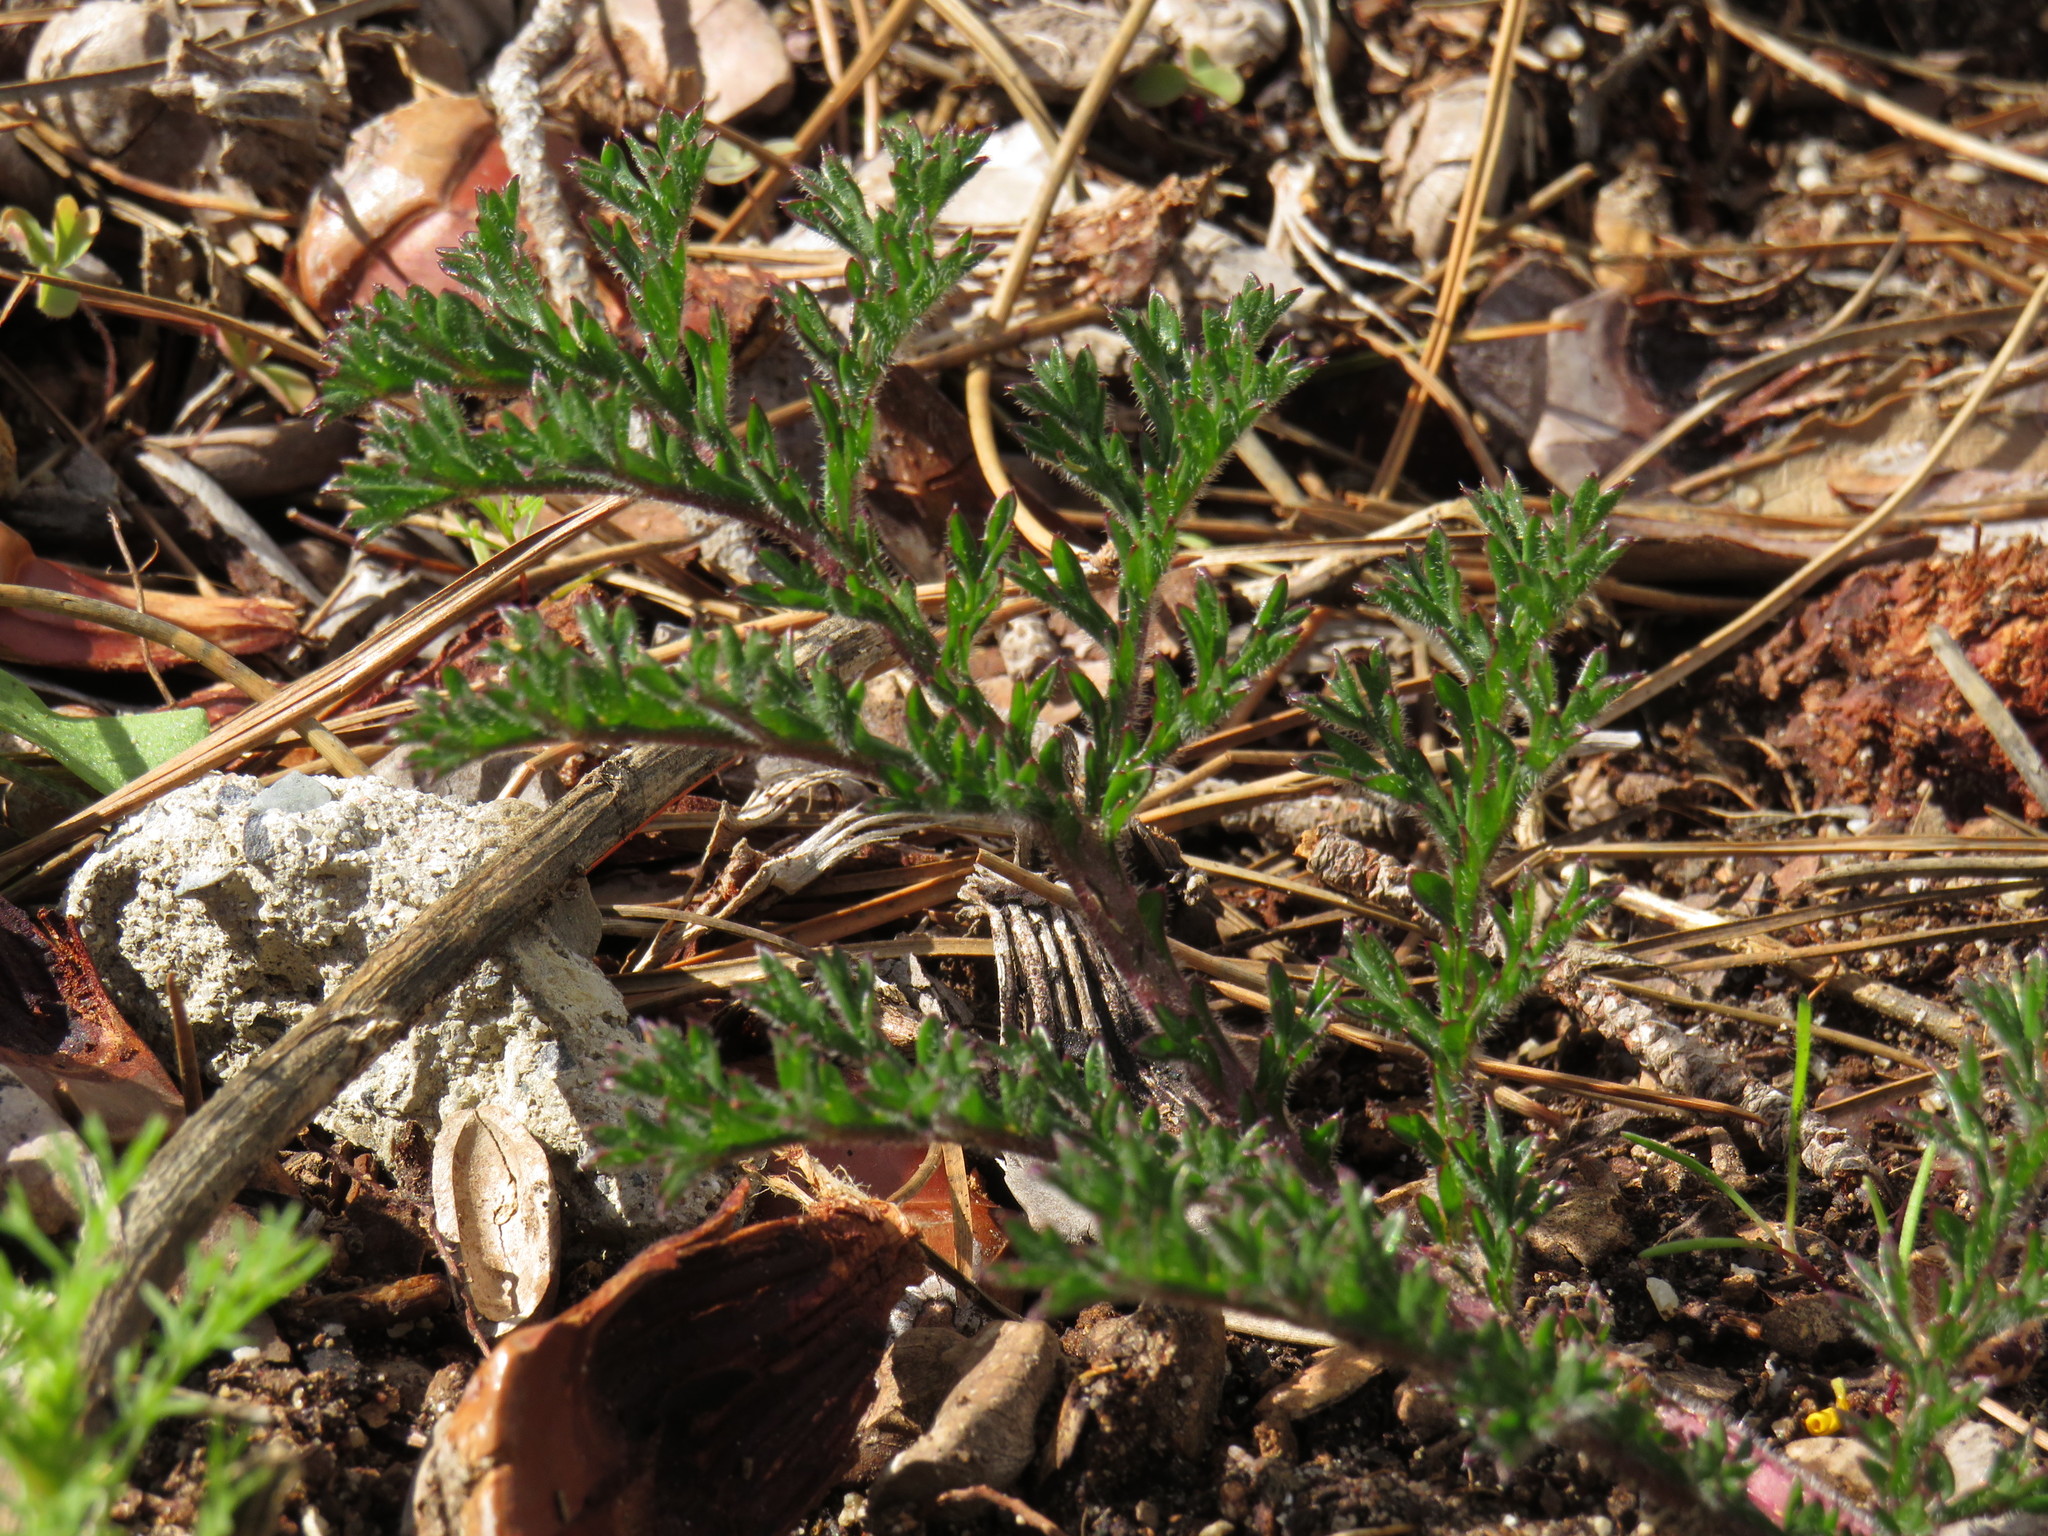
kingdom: Plantae
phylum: Tracheophyta
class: Magnoliopsida
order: Geraniales
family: Geraniaceae
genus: Pelargonium
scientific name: Pelargonium triste
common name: Night-scent pelargonium
